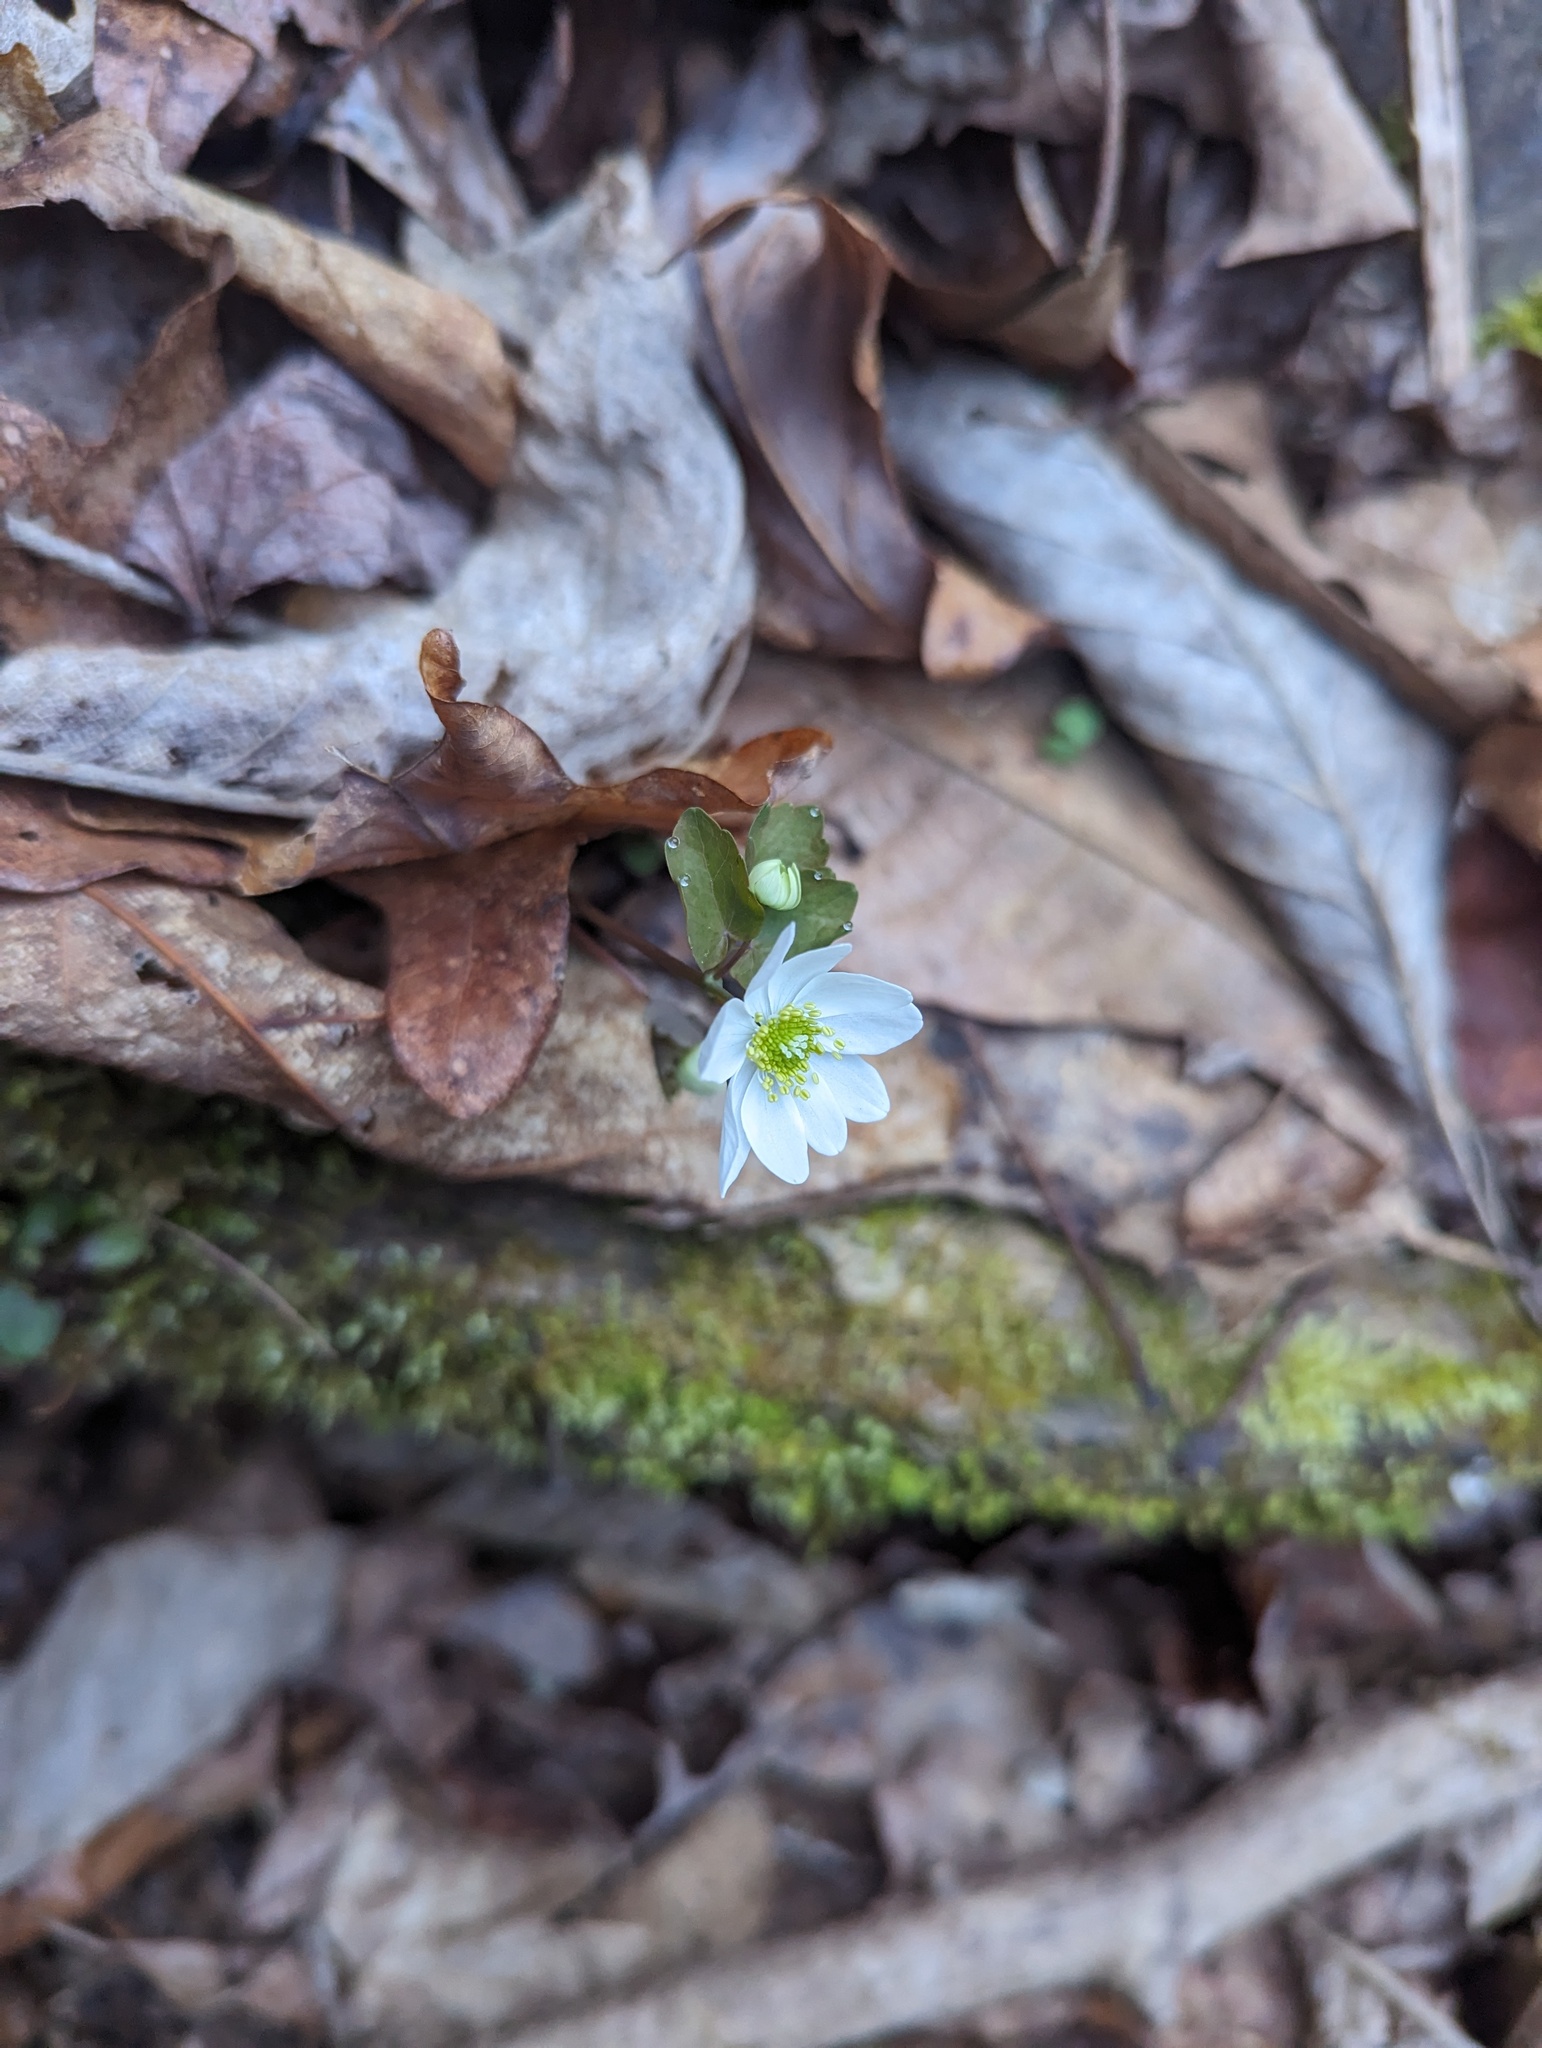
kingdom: Plantae
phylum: Tracheophyta
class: Magnoliopsida
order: Ranunculales
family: Ranunculaceae
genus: Thalictrum
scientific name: Thalictrum thalictroides
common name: Rue-anemone
